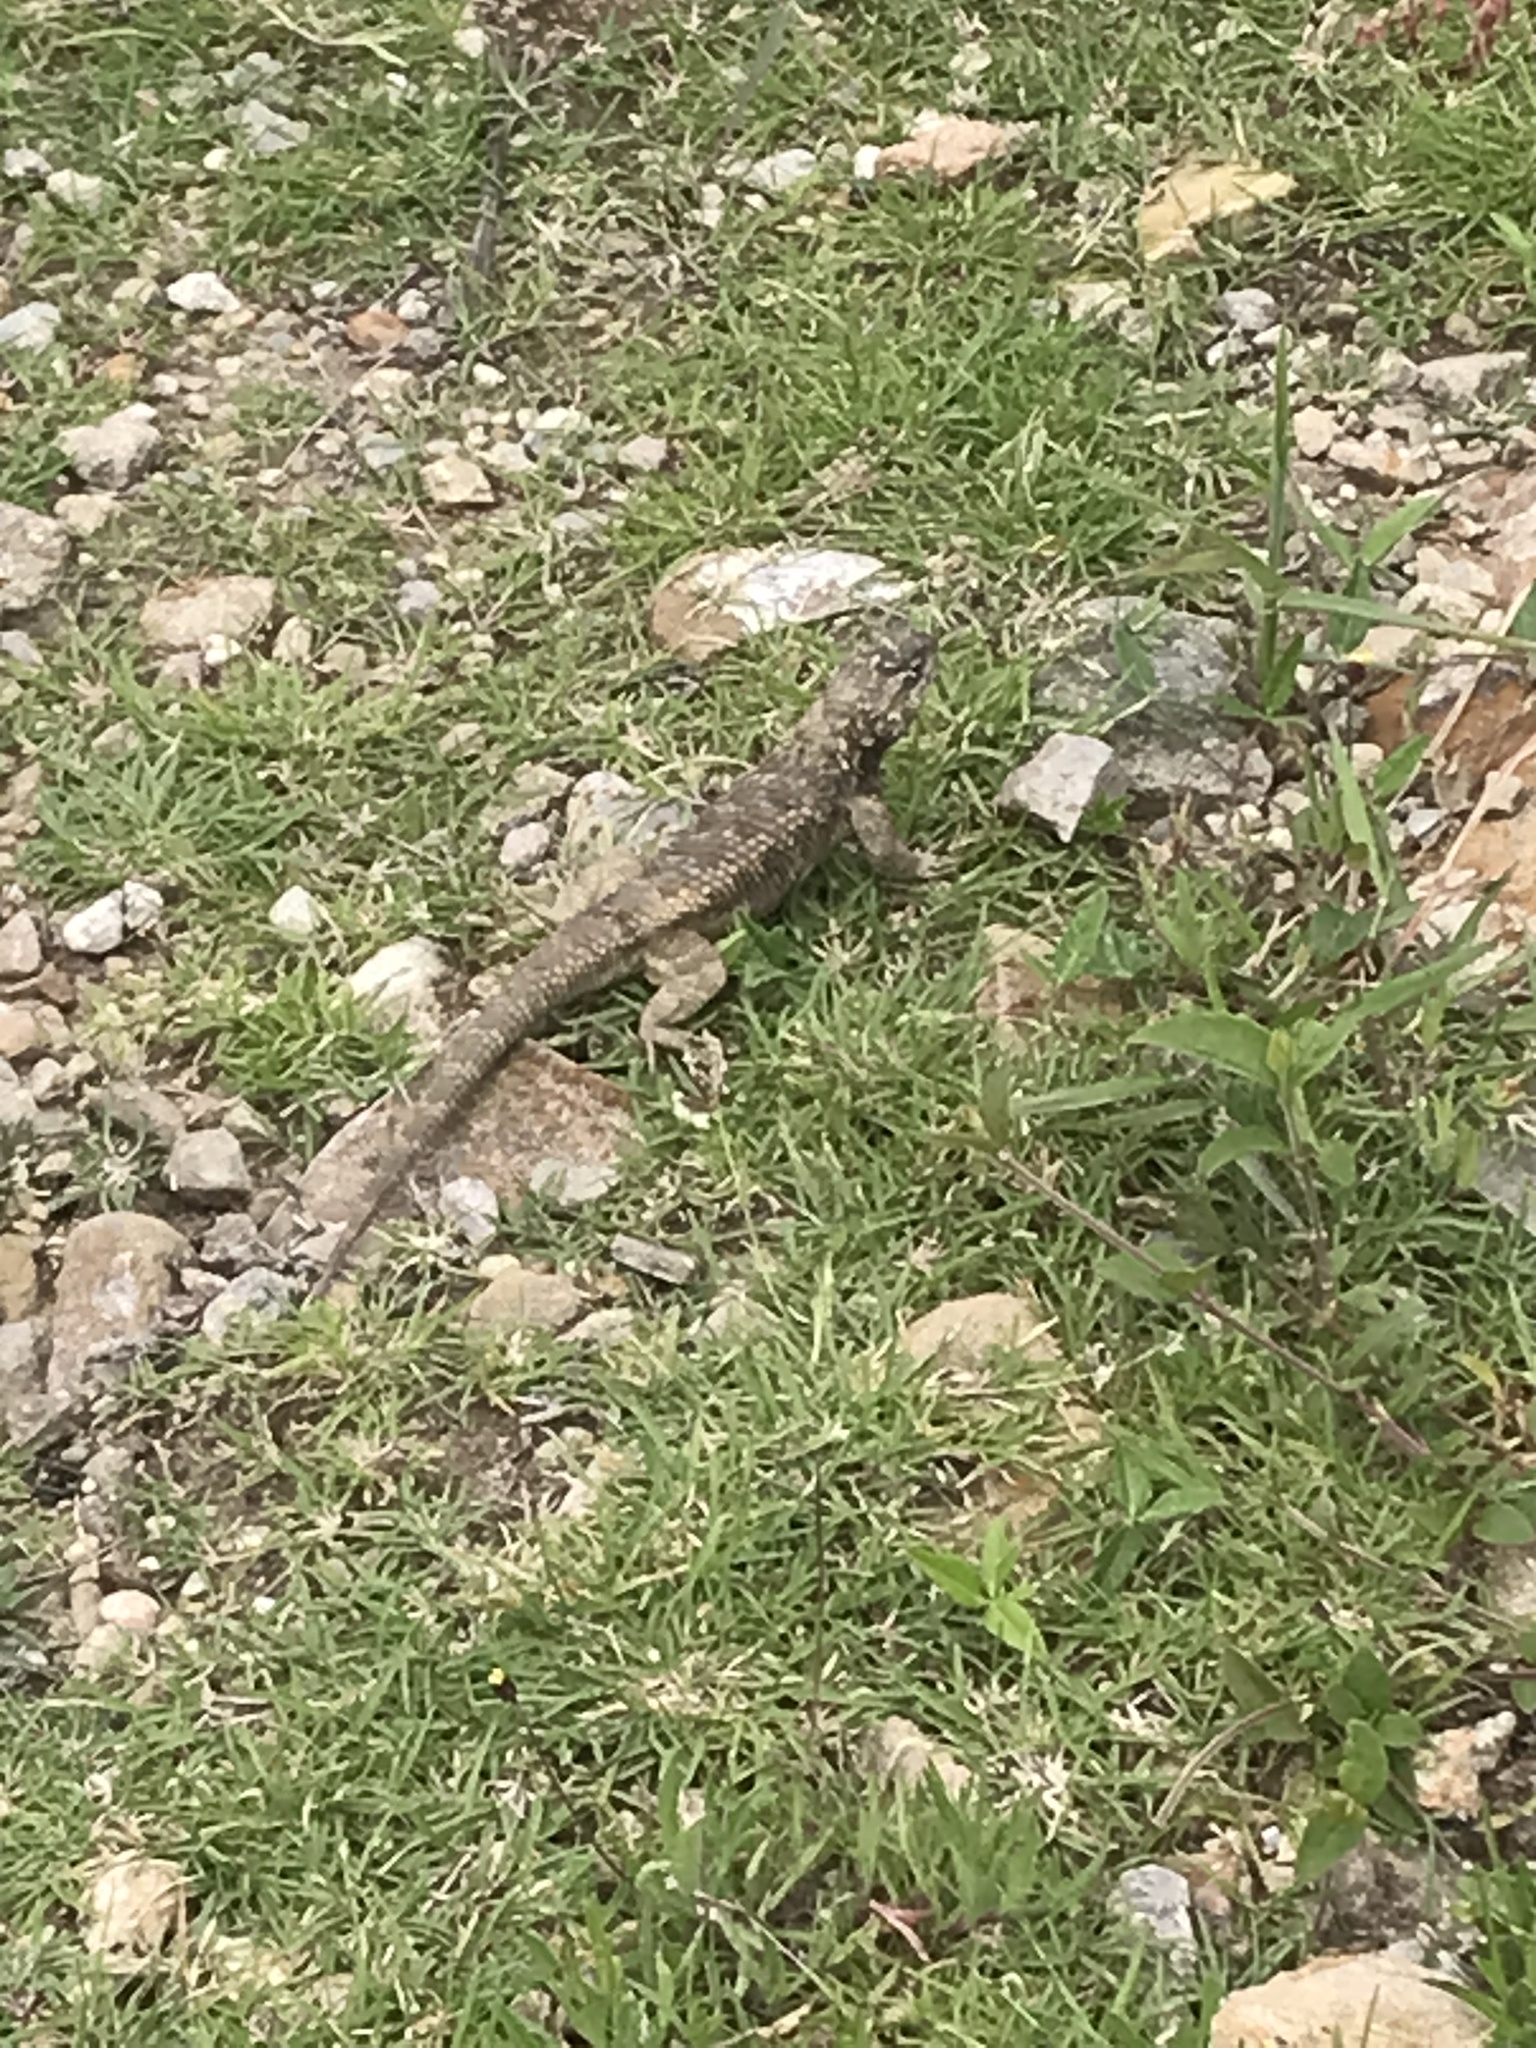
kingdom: Animalia
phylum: Chordata
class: Squamata
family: Phrynosomatidae
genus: Sceloporus
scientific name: Sceloporus spinosus
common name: Blue-spotted spiny lizard [caeruleopunctatus]
